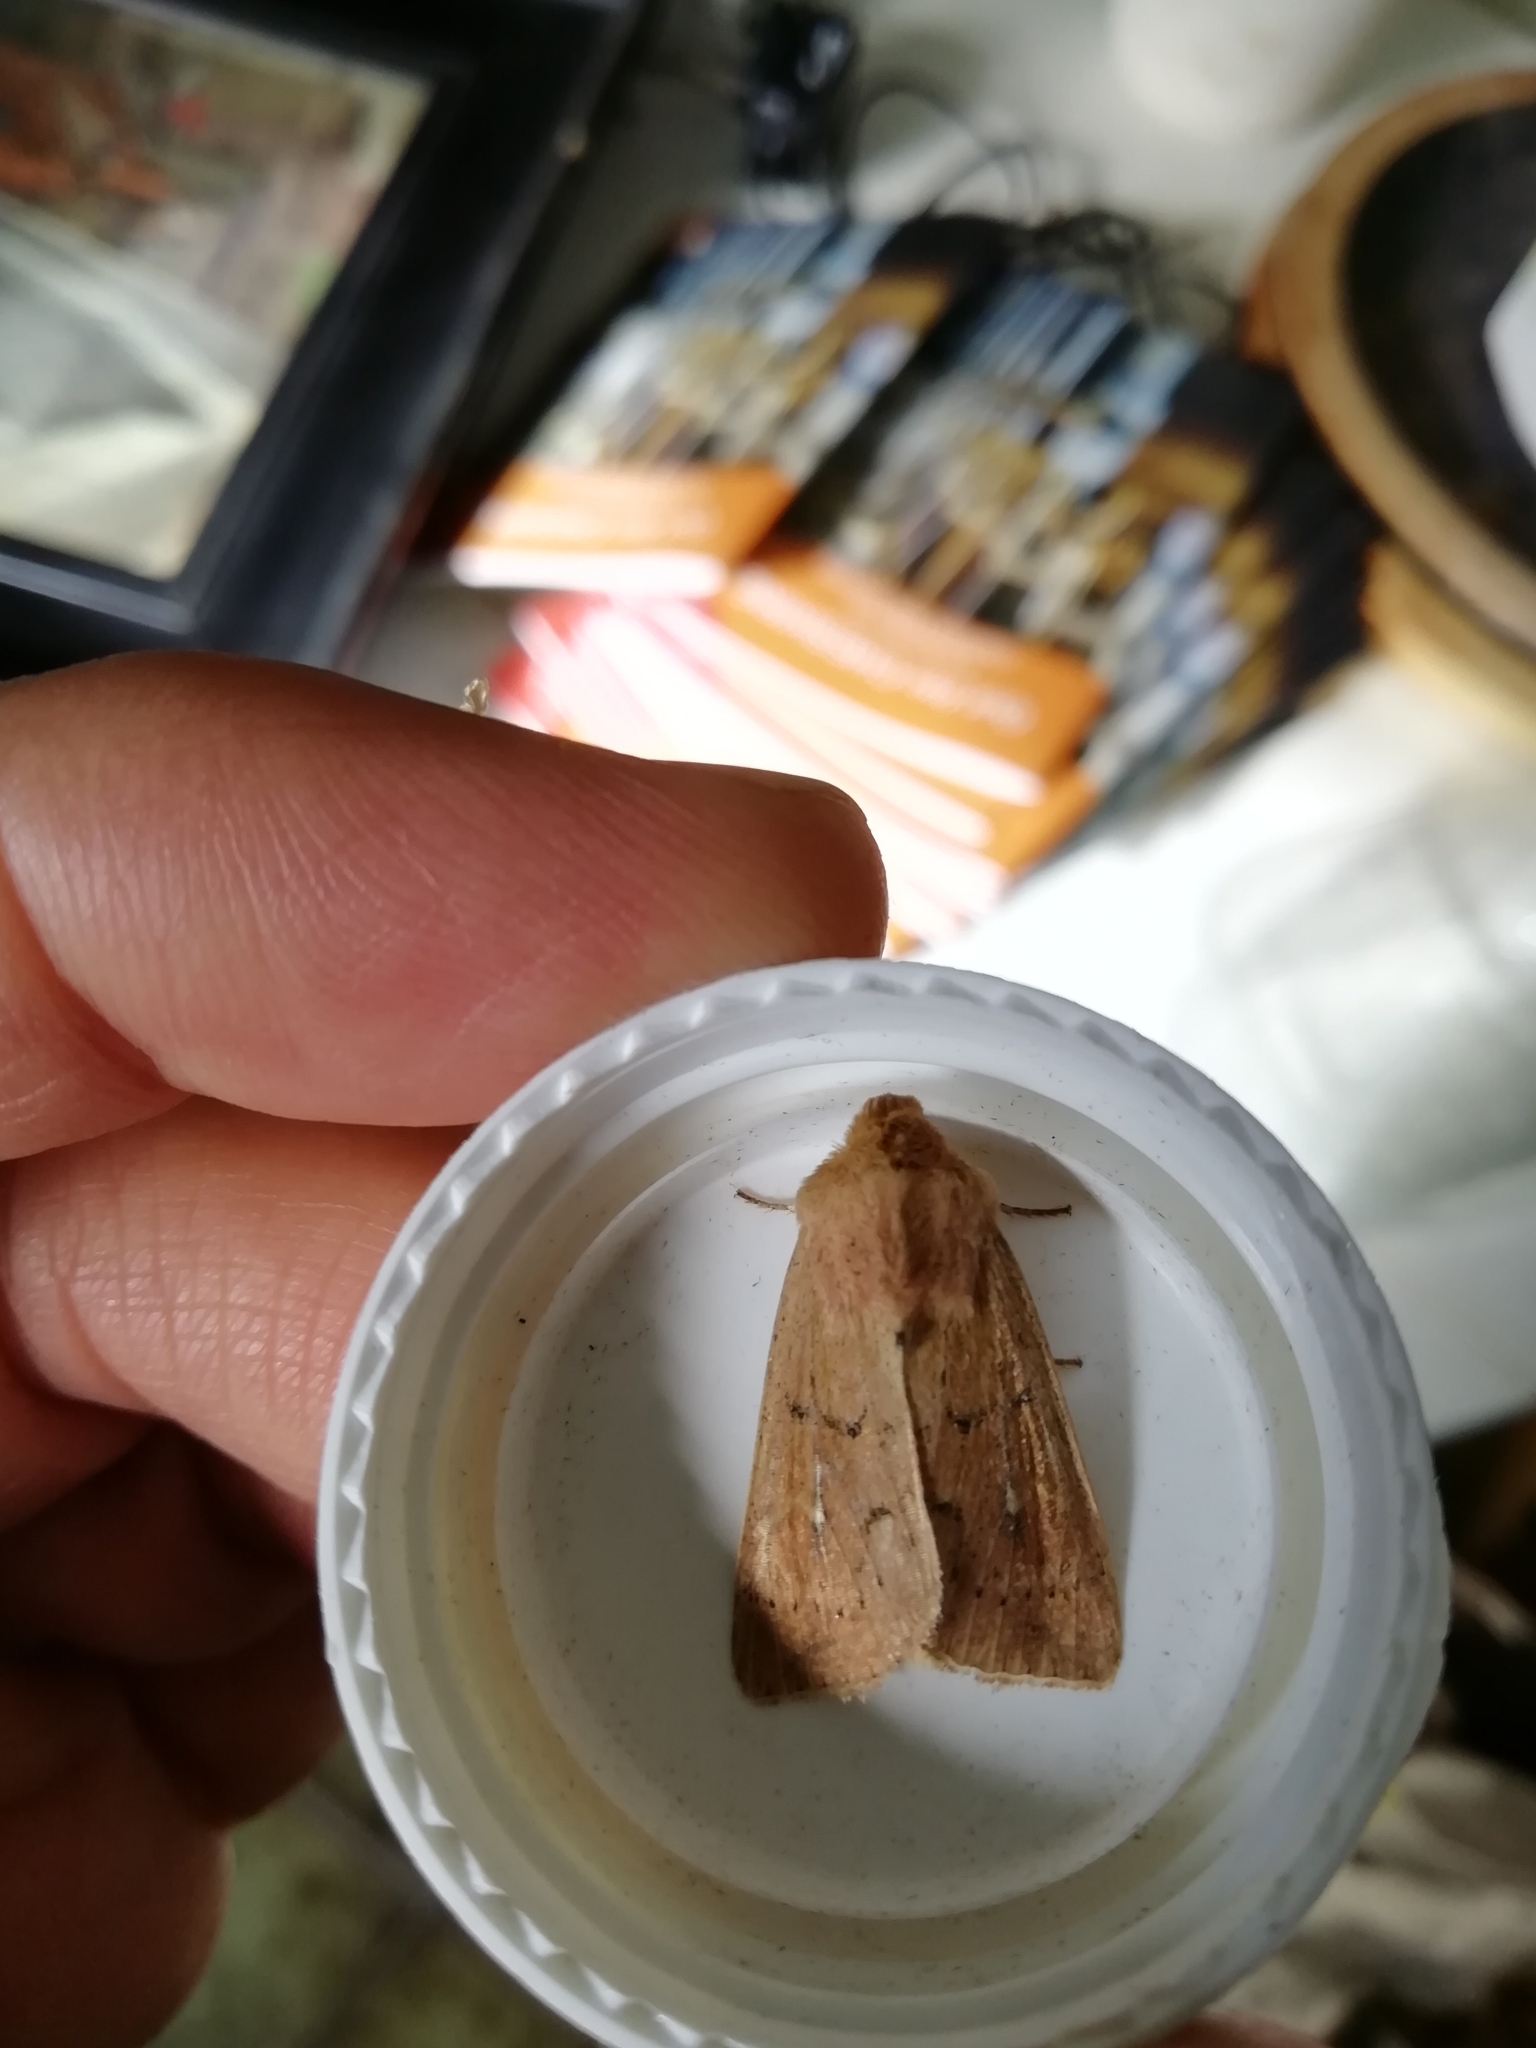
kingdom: Animalia
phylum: Arthropoda
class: Insecta
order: Lepidoptera
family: Noctuidae
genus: Mythimna
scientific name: Mythimna ferrago
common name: Clay
